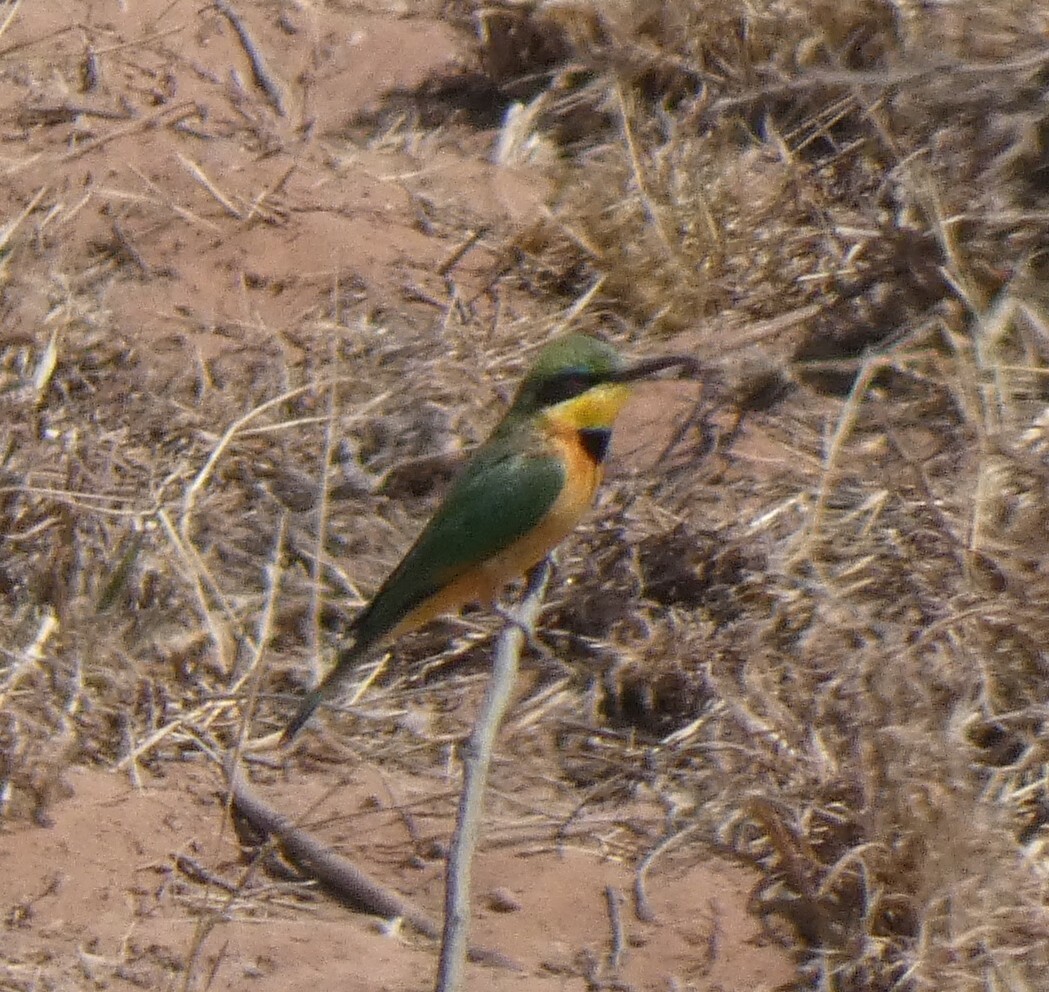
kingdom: Animalia
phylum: Chordata
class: Aves
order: Coraciiformes
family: Meropidae
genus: Merops
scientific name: Merops pusillus
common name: Little bee-eater
